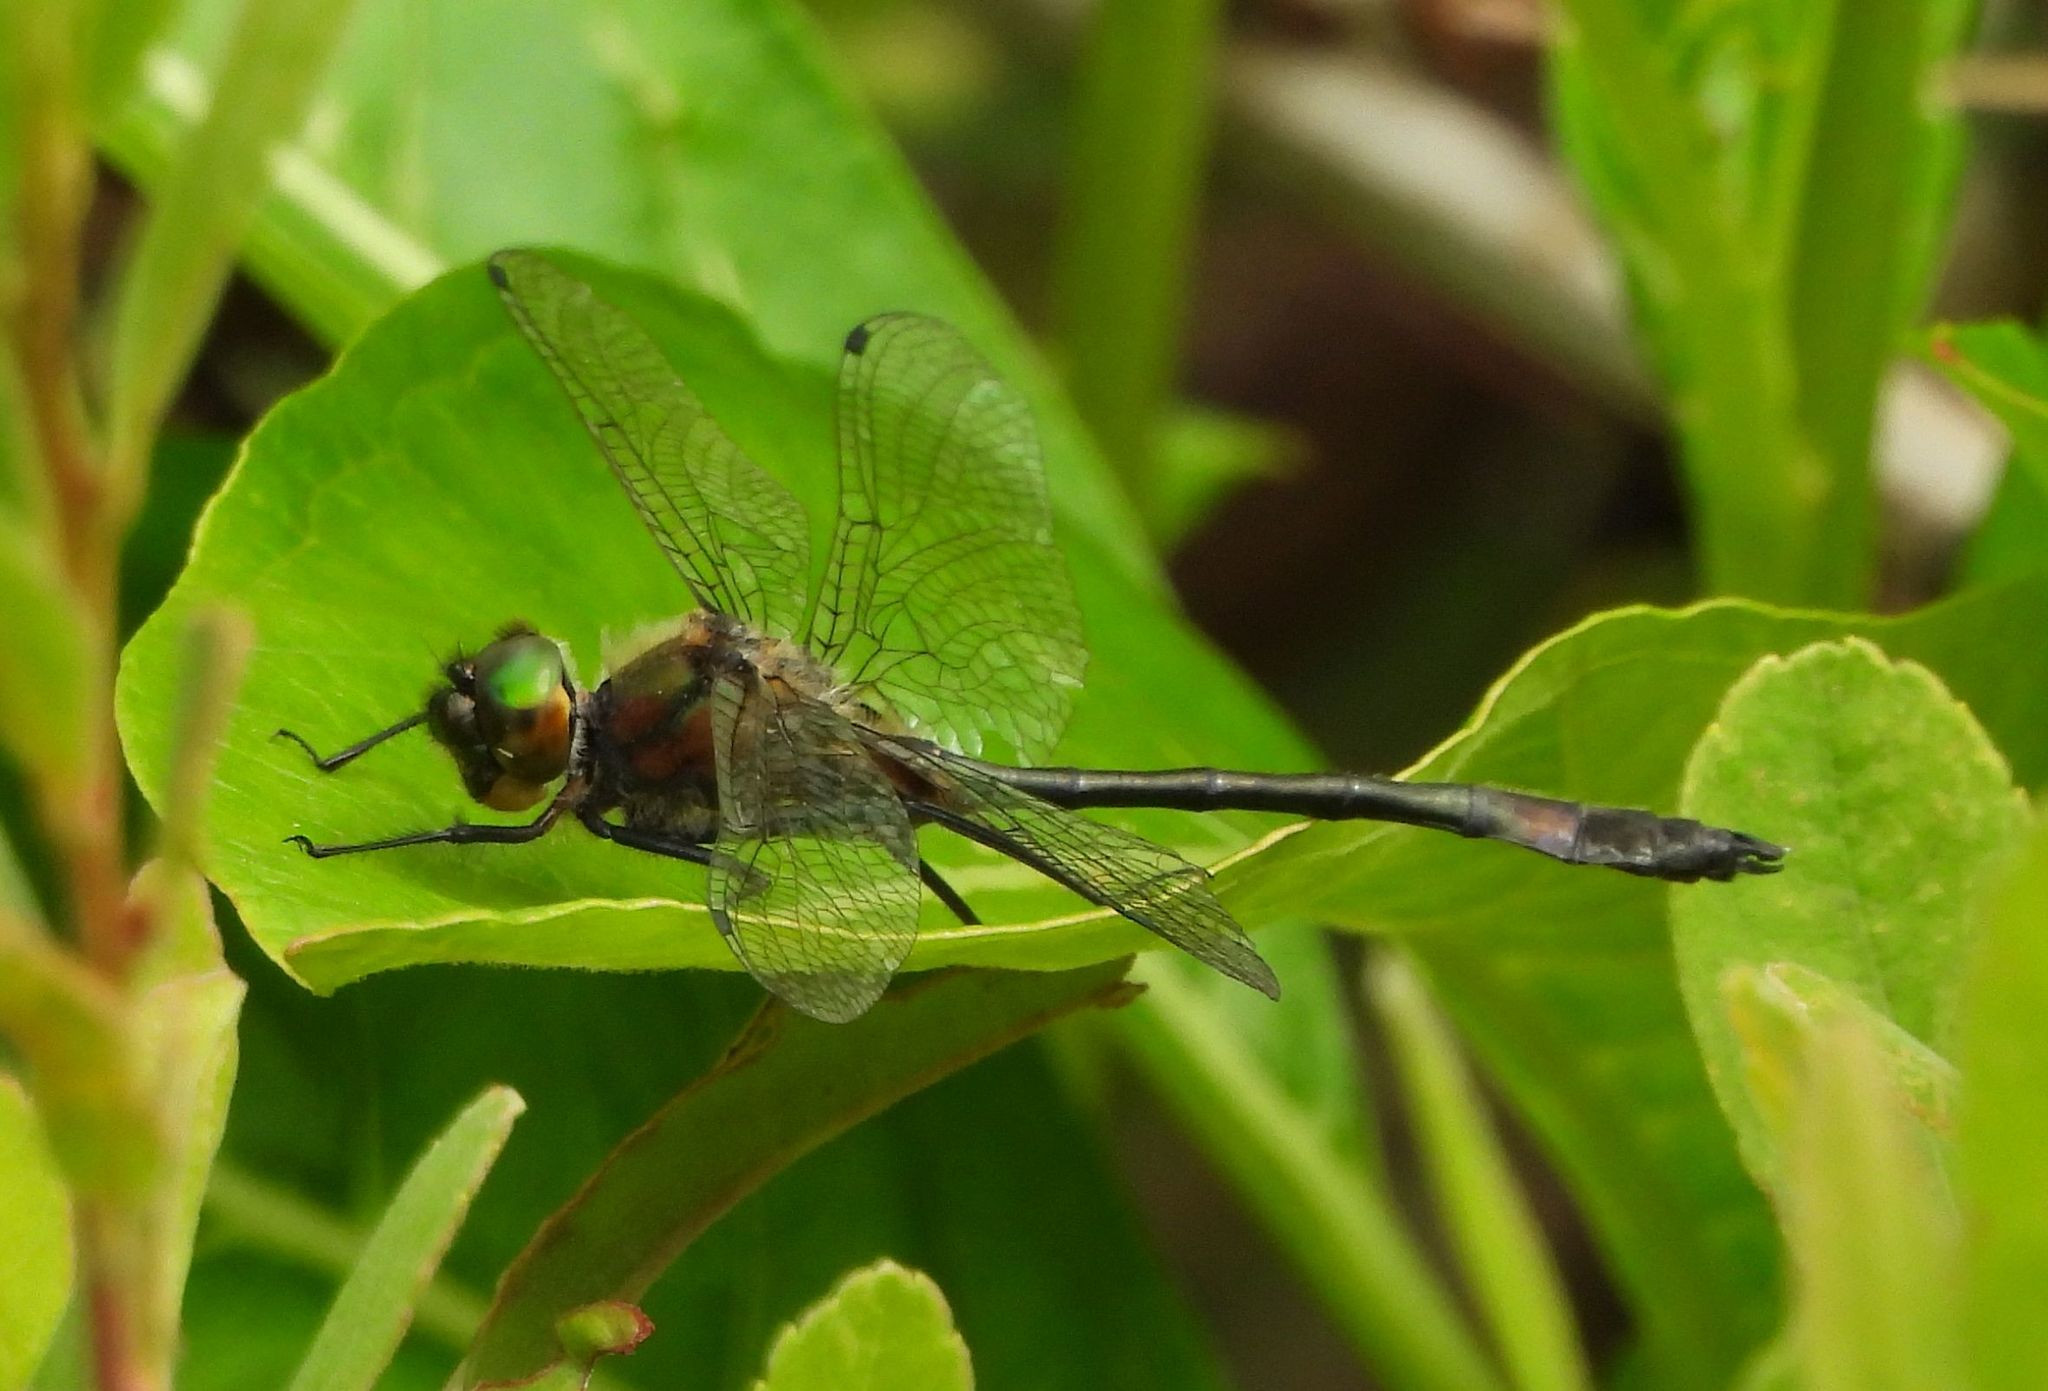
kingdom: Animalia
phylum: Arthropoda
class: Insecta
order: Odonata
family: Corduliidae
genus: Dorocordulia
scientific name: Dorocordulia libera
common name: Racket-tailed emerald
